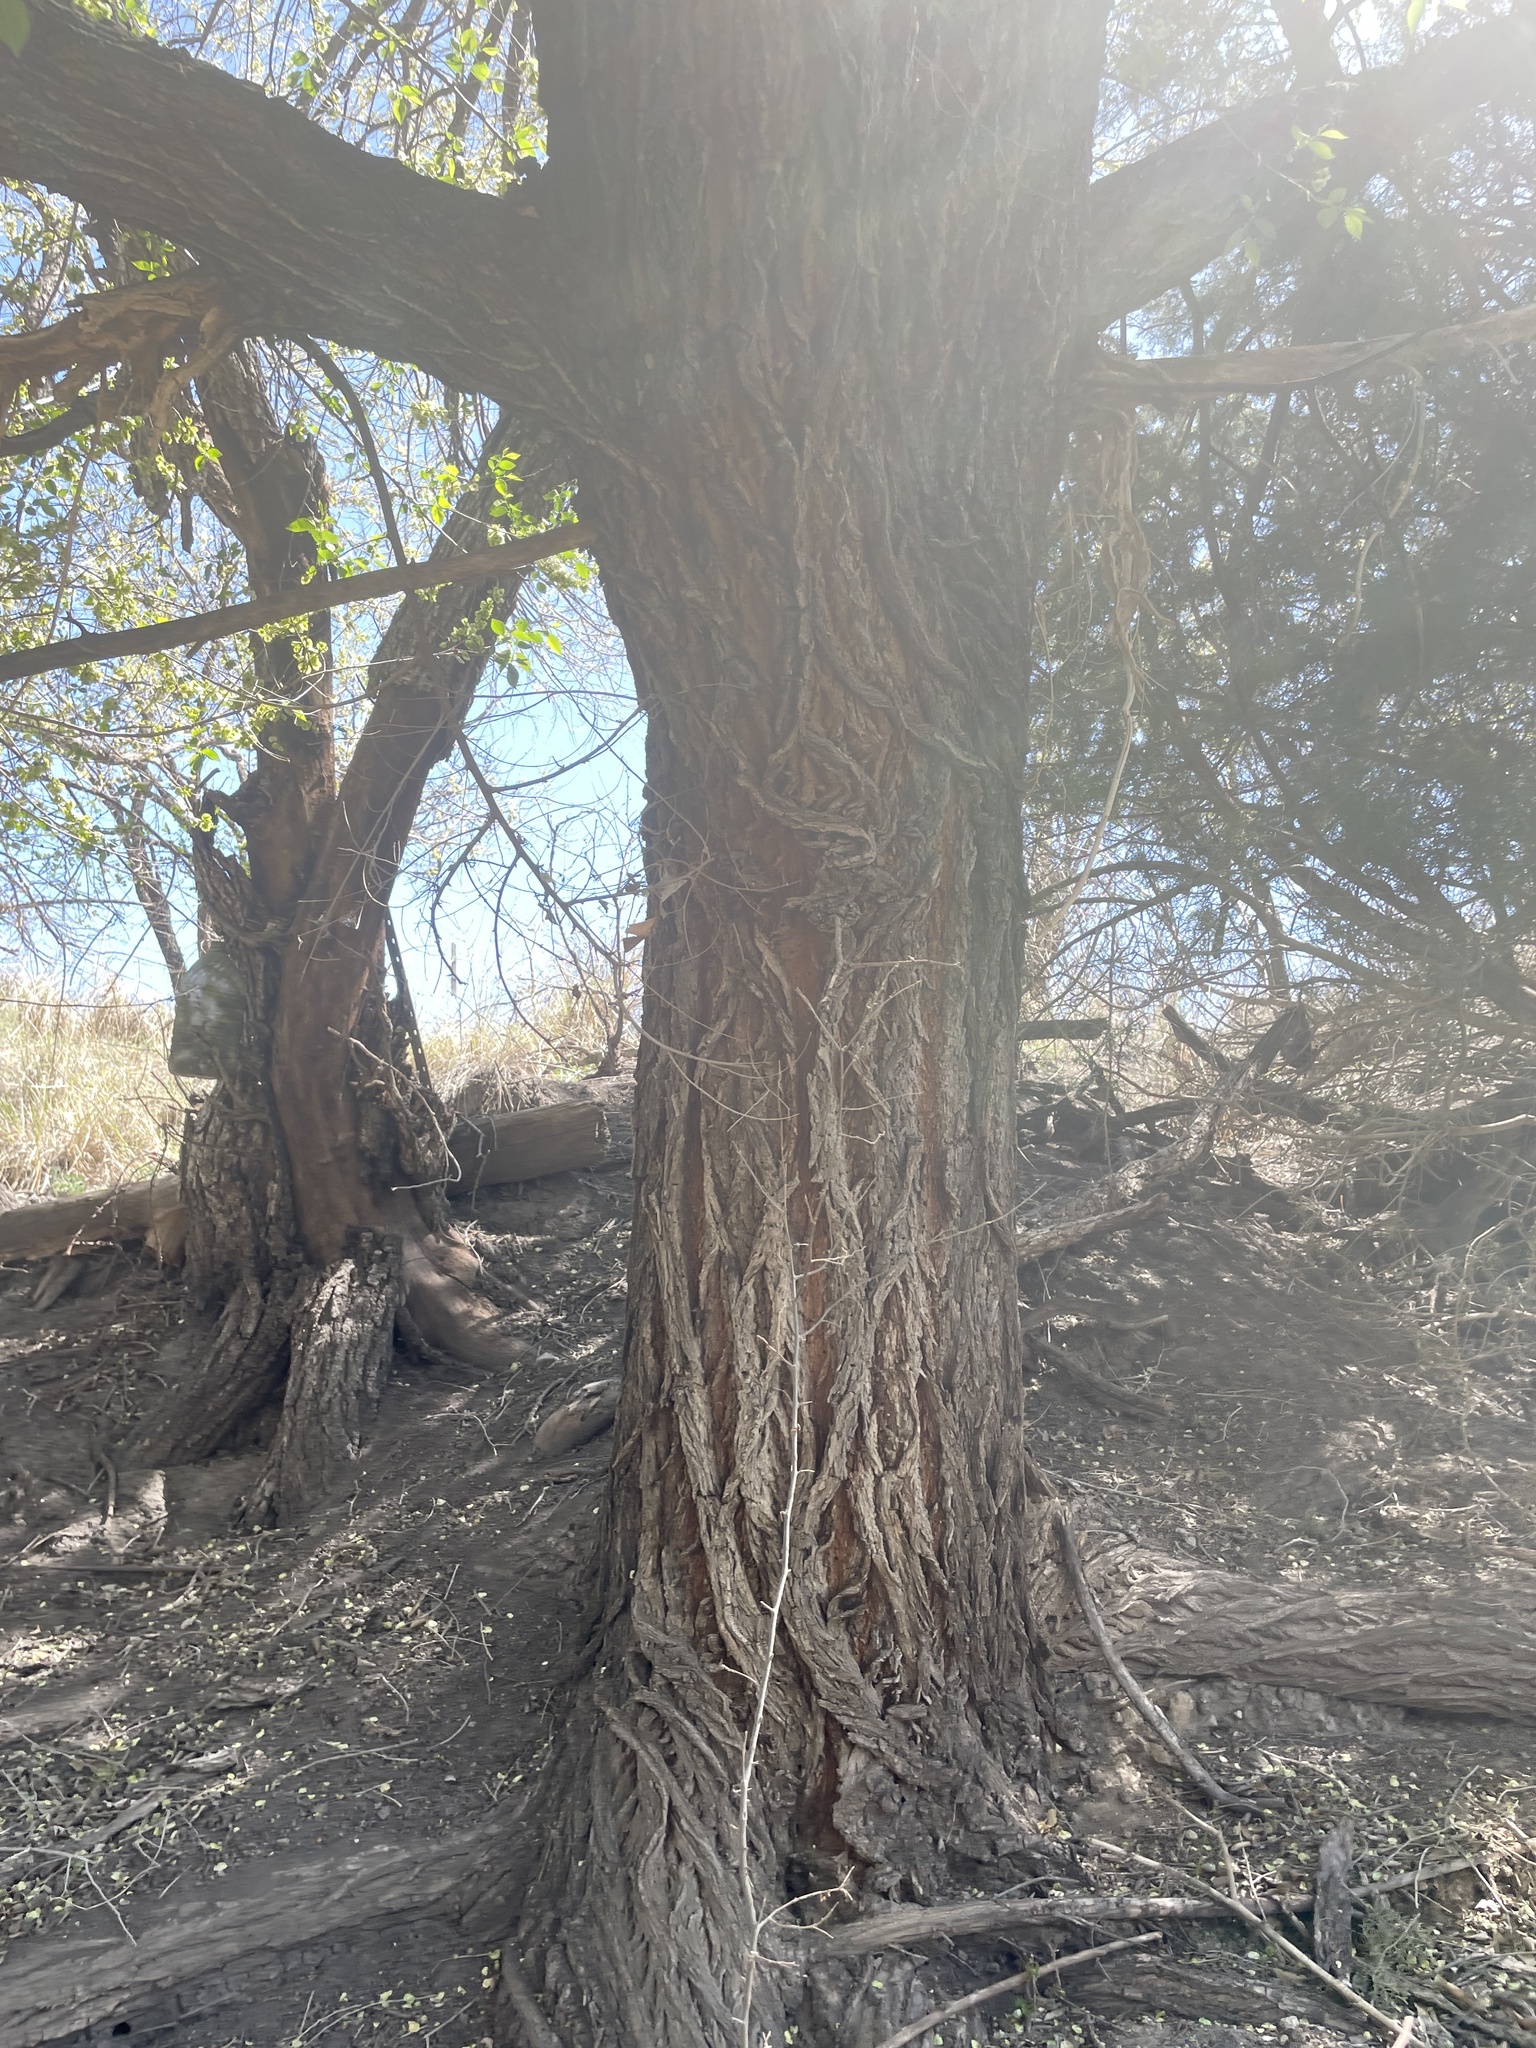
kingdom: Plantae
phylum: Tracheophyta
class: Magnoliopsida
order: Rosales
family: Ulmaceae
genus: Ulmus
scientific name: Ulmus pumila
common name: Siberian elm
